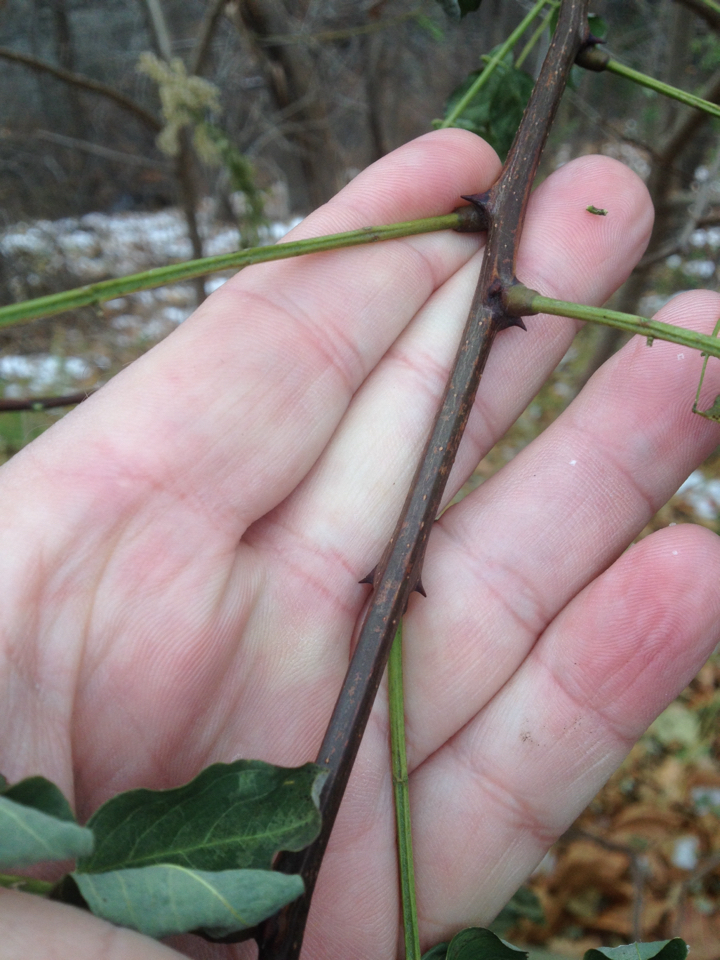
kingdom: Plantae
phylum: Tracheophyta
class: Magnoliopsida
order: Fabales
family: Fabaceae
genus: Robinia
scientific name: Robinia pseudoacacia
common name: Black locust
